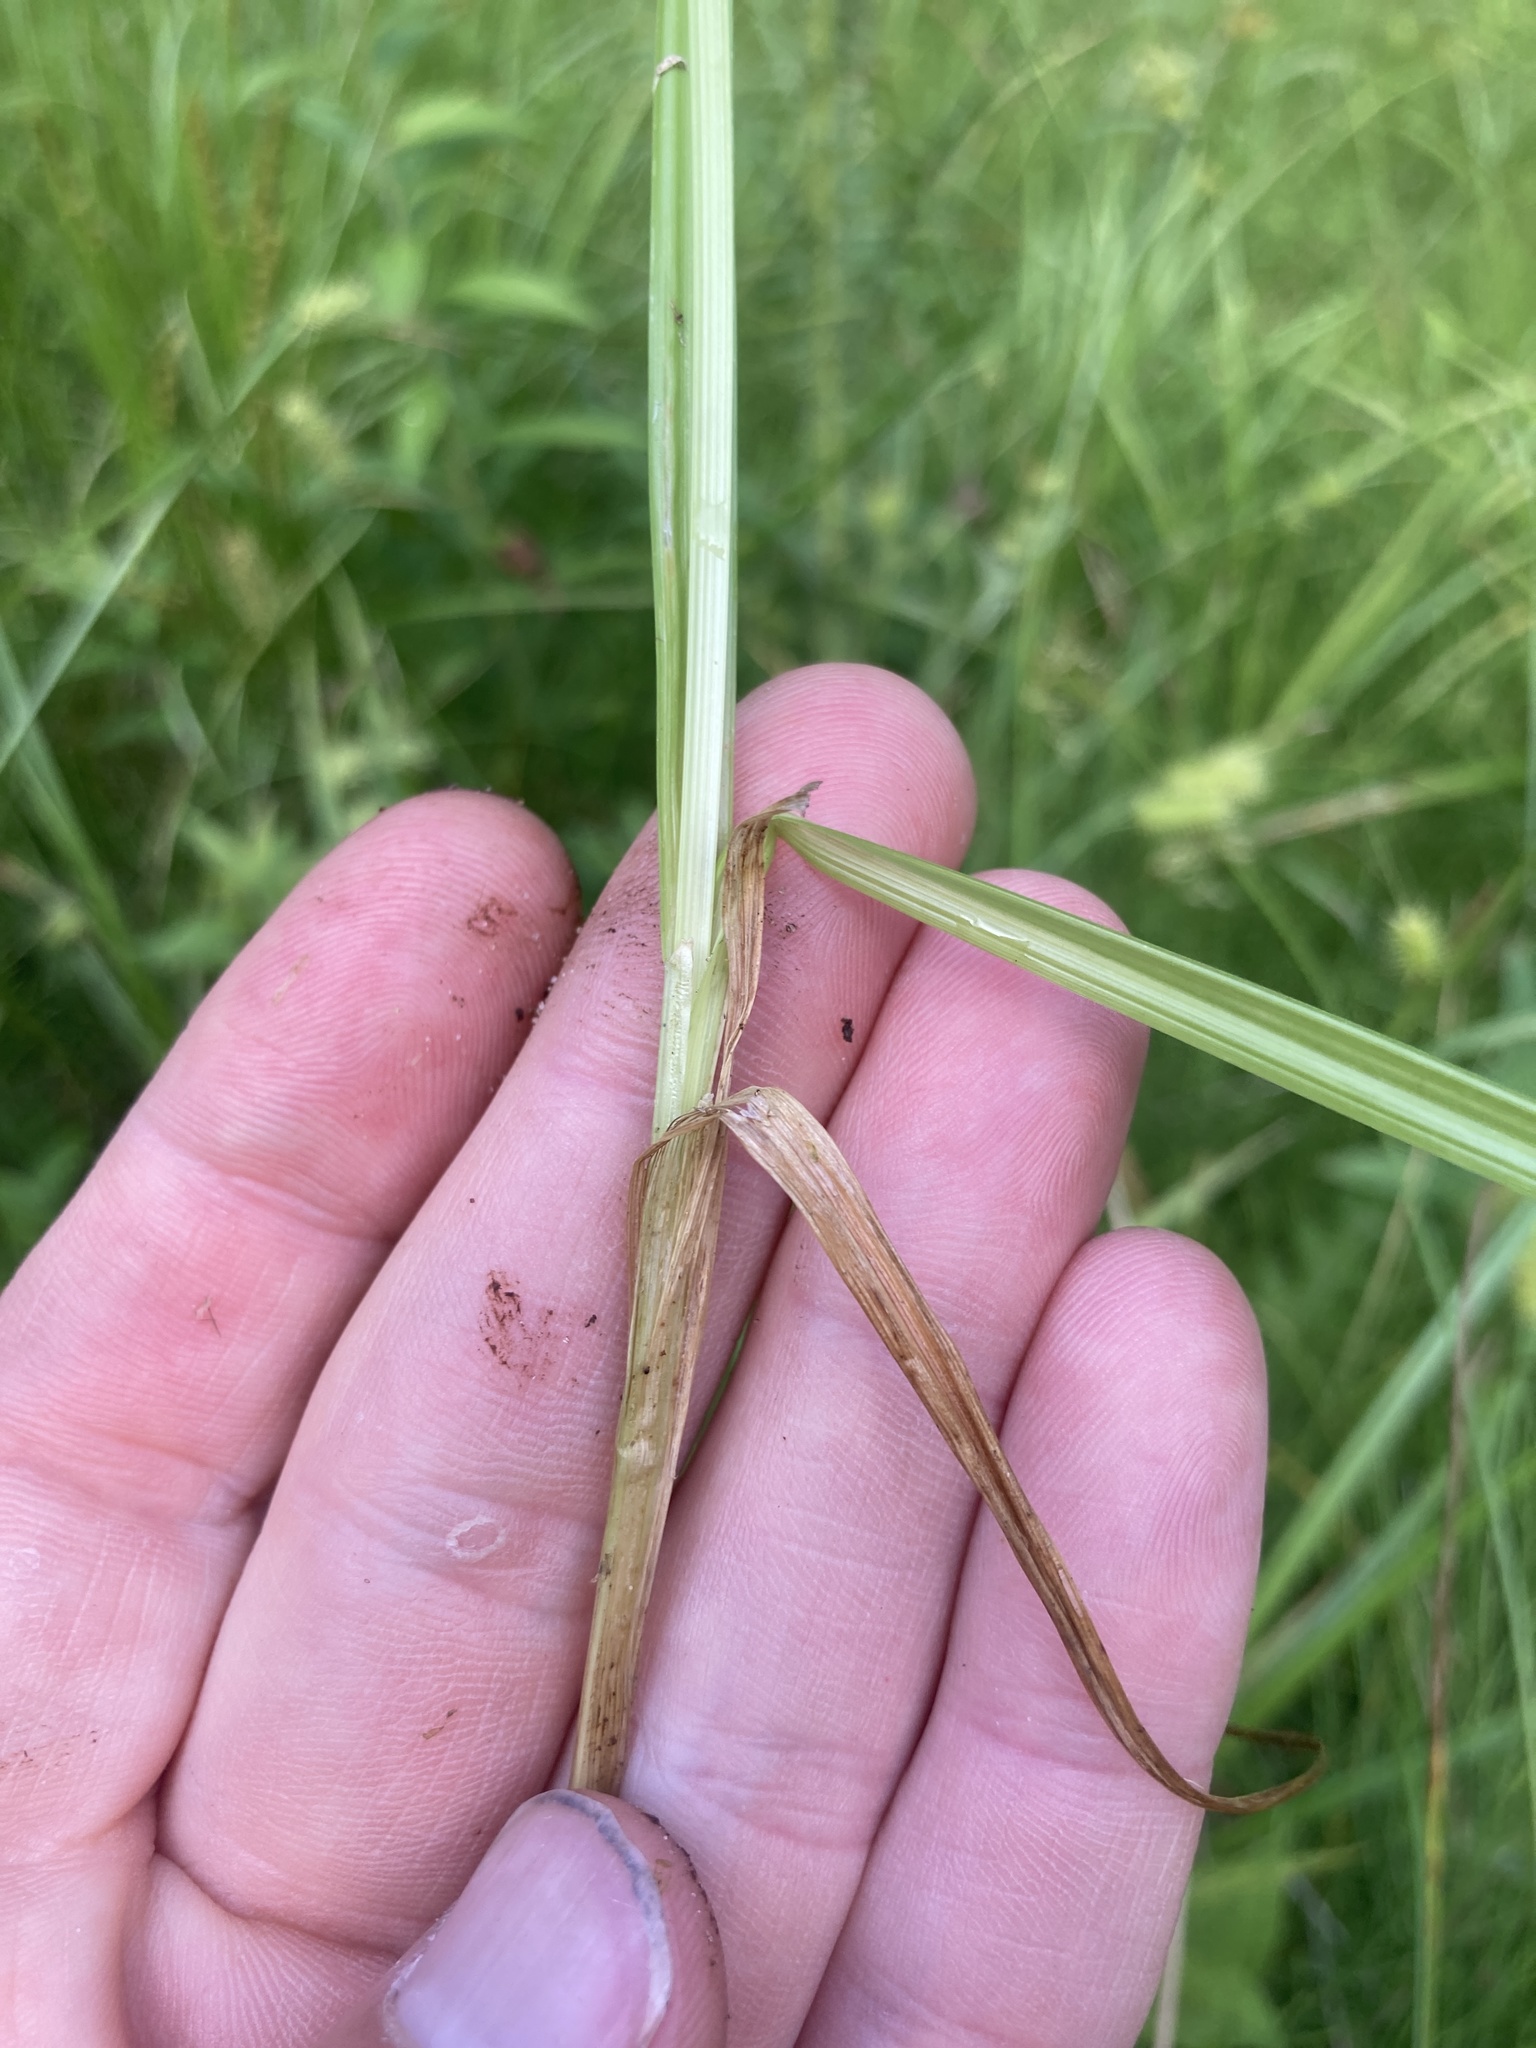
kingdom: Plantae
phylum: Tracheophyta
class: Liliopsida
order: Poales
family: Cyperaceae
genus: Carex
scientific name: Carex stipata
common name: Awl-fruited sedge
